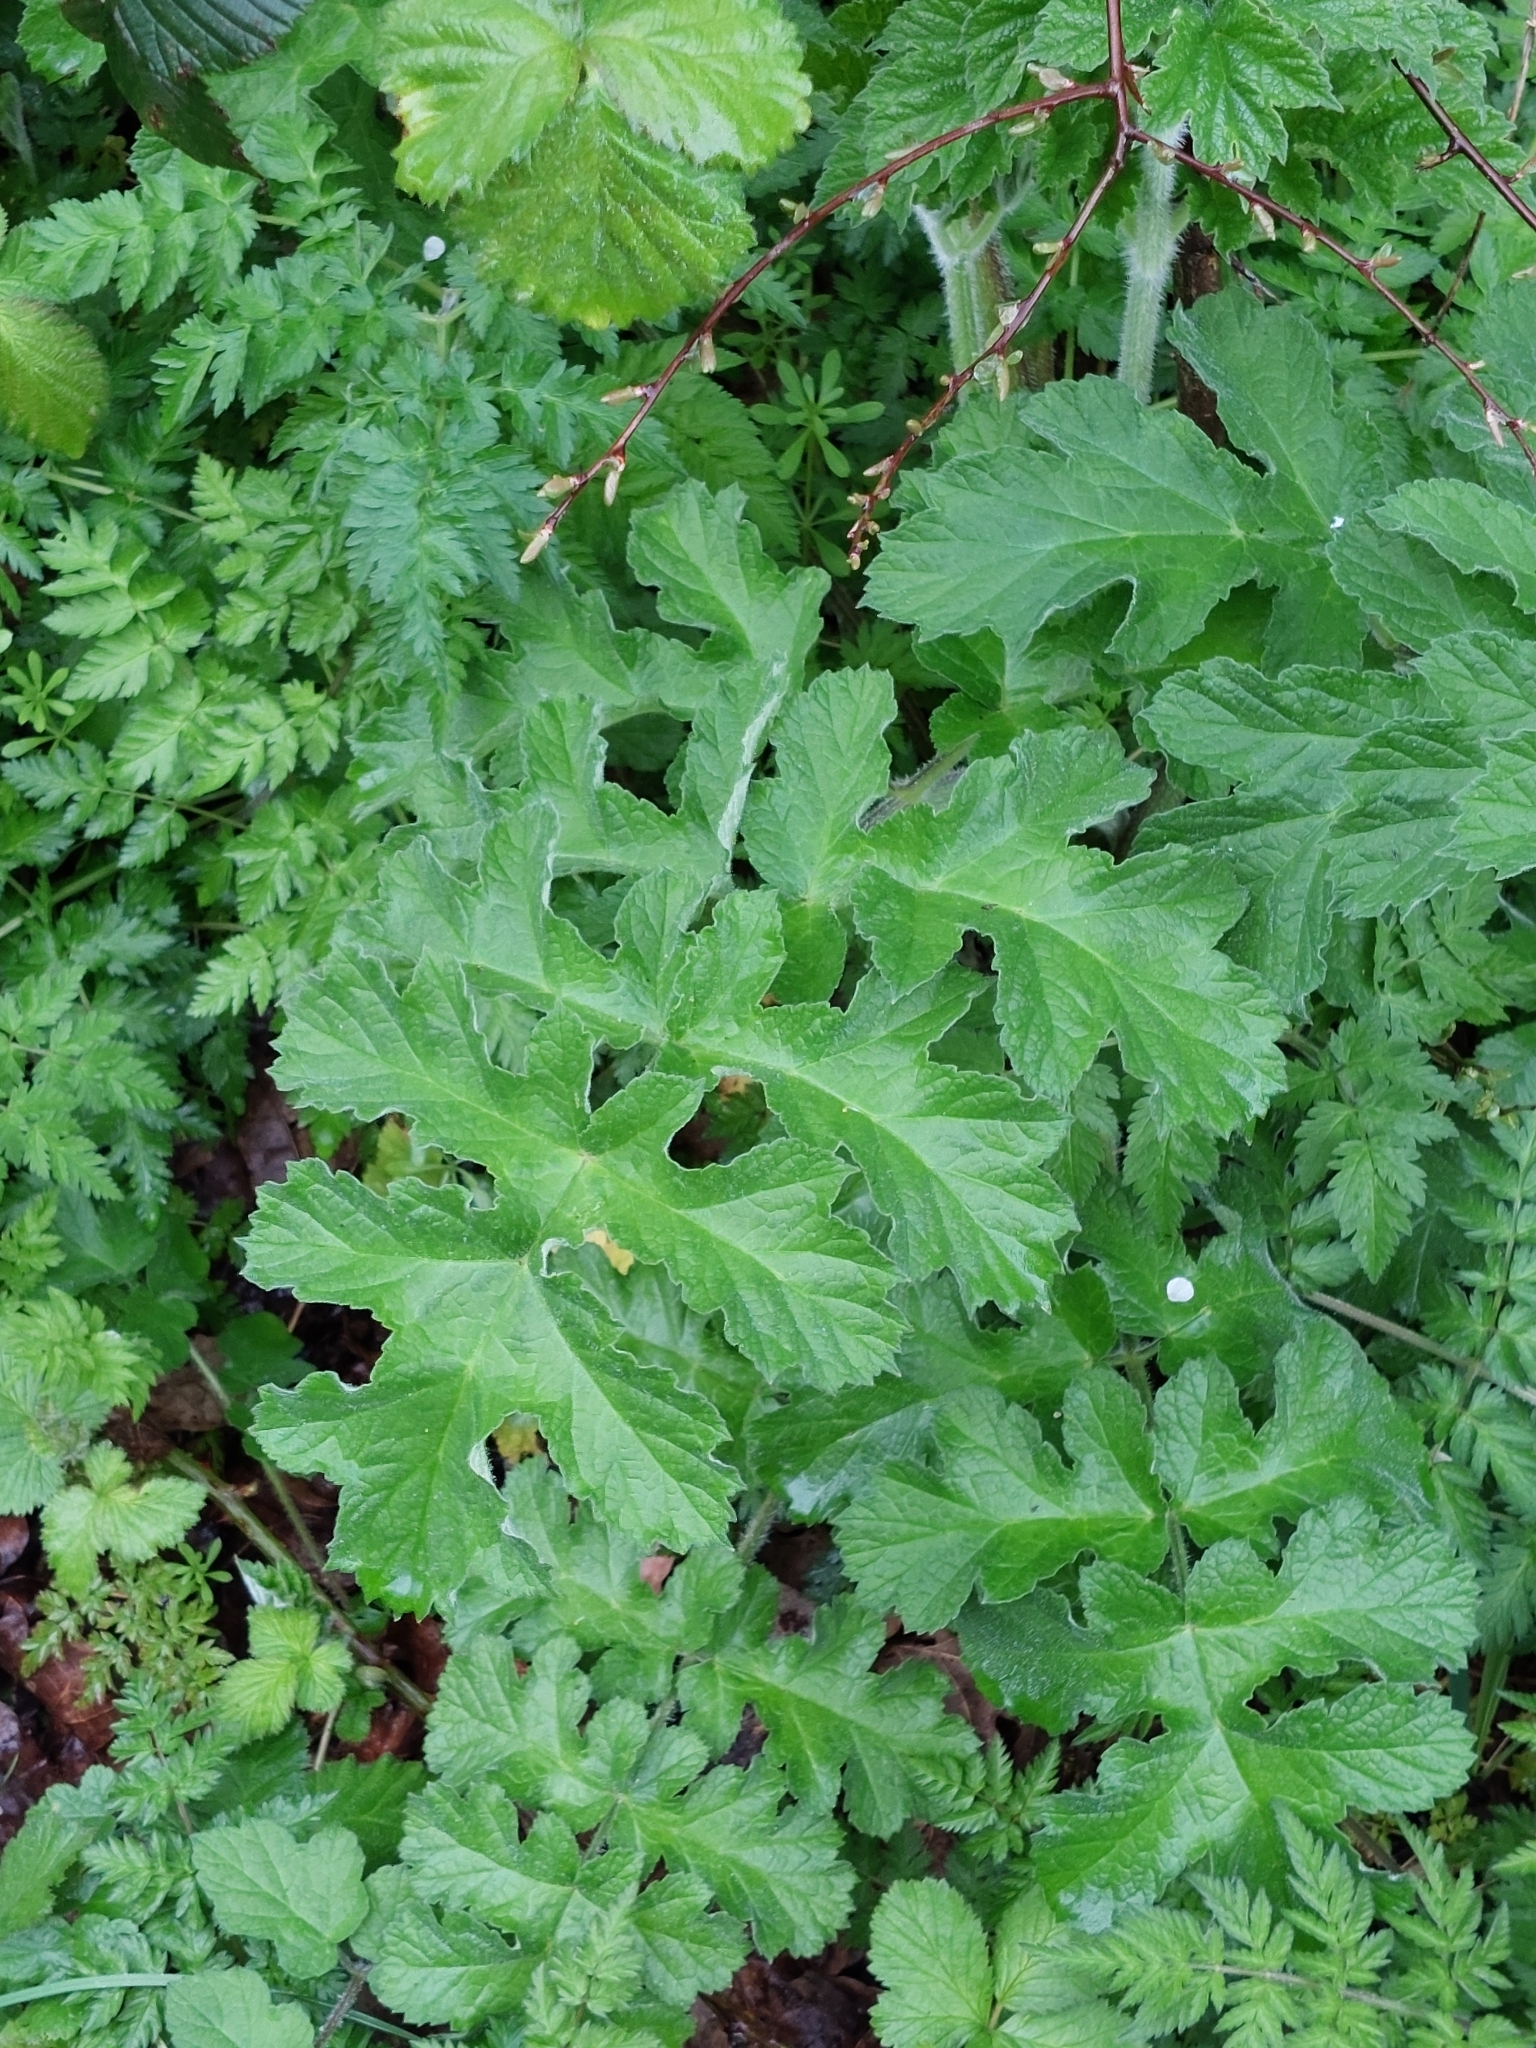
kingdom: Plantae
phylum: Tracheophyta
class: Magnoliopsida
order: Apiales
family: Apiaceae
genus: Heracleum
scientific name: Heracleum sphondylium
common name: Hogweed
